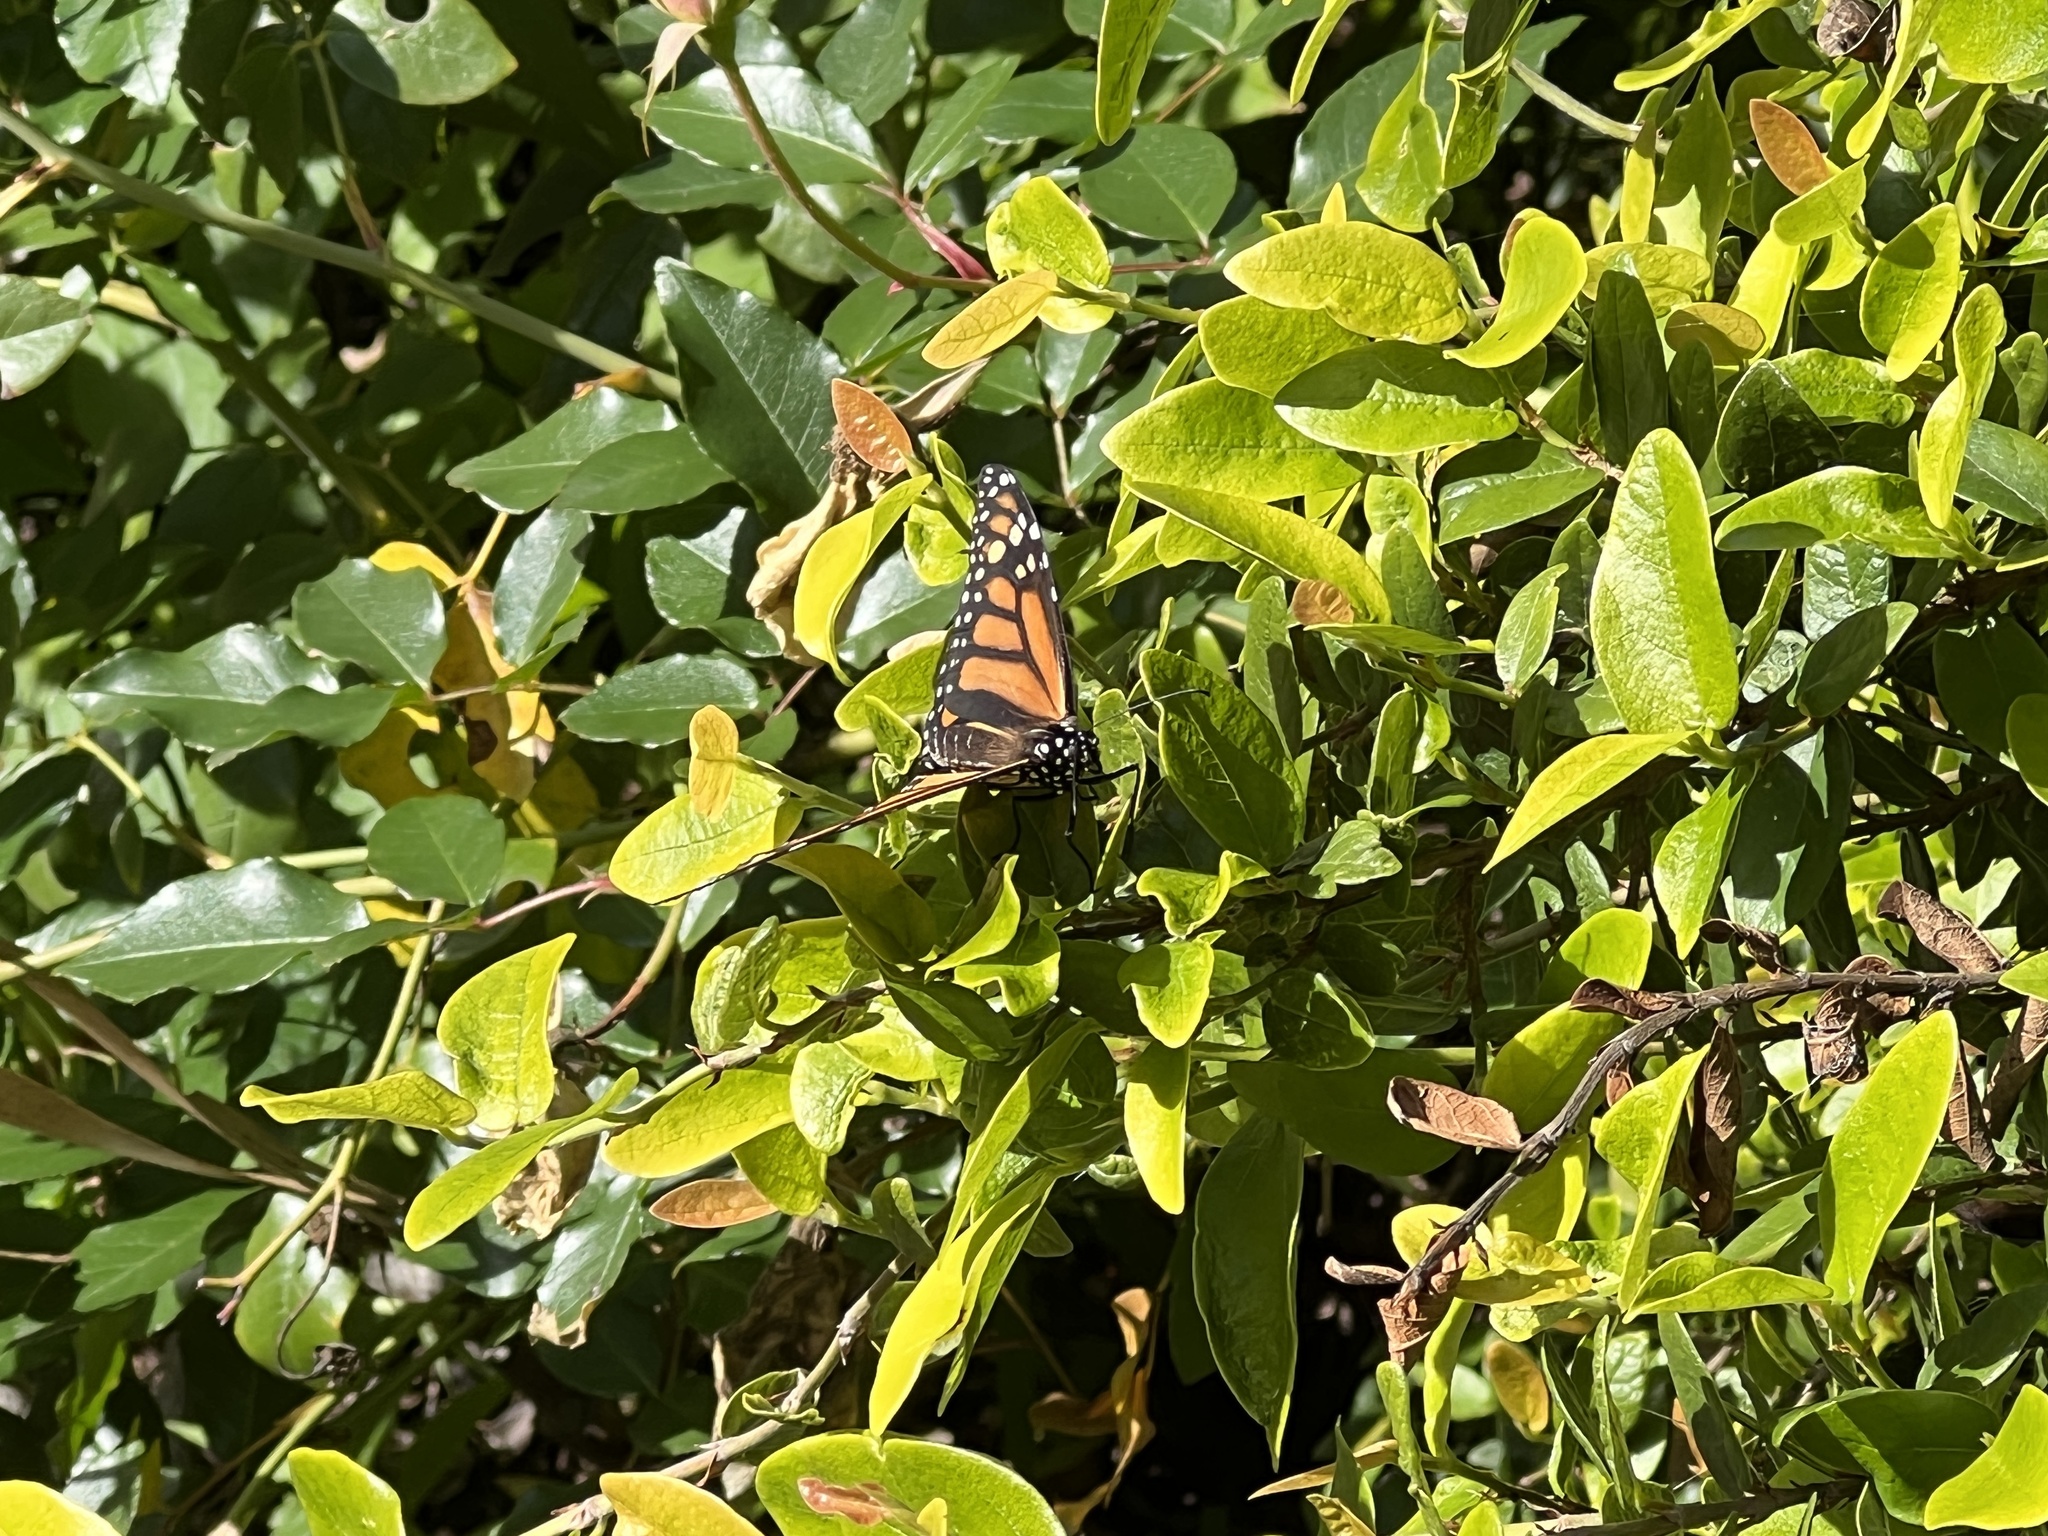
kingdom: Animalia
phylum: Arthropoda
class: Insecta
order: Lepidoptera
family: Nymphalidae
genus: Danaus
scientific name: Danaus plexippus
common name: Monarch
